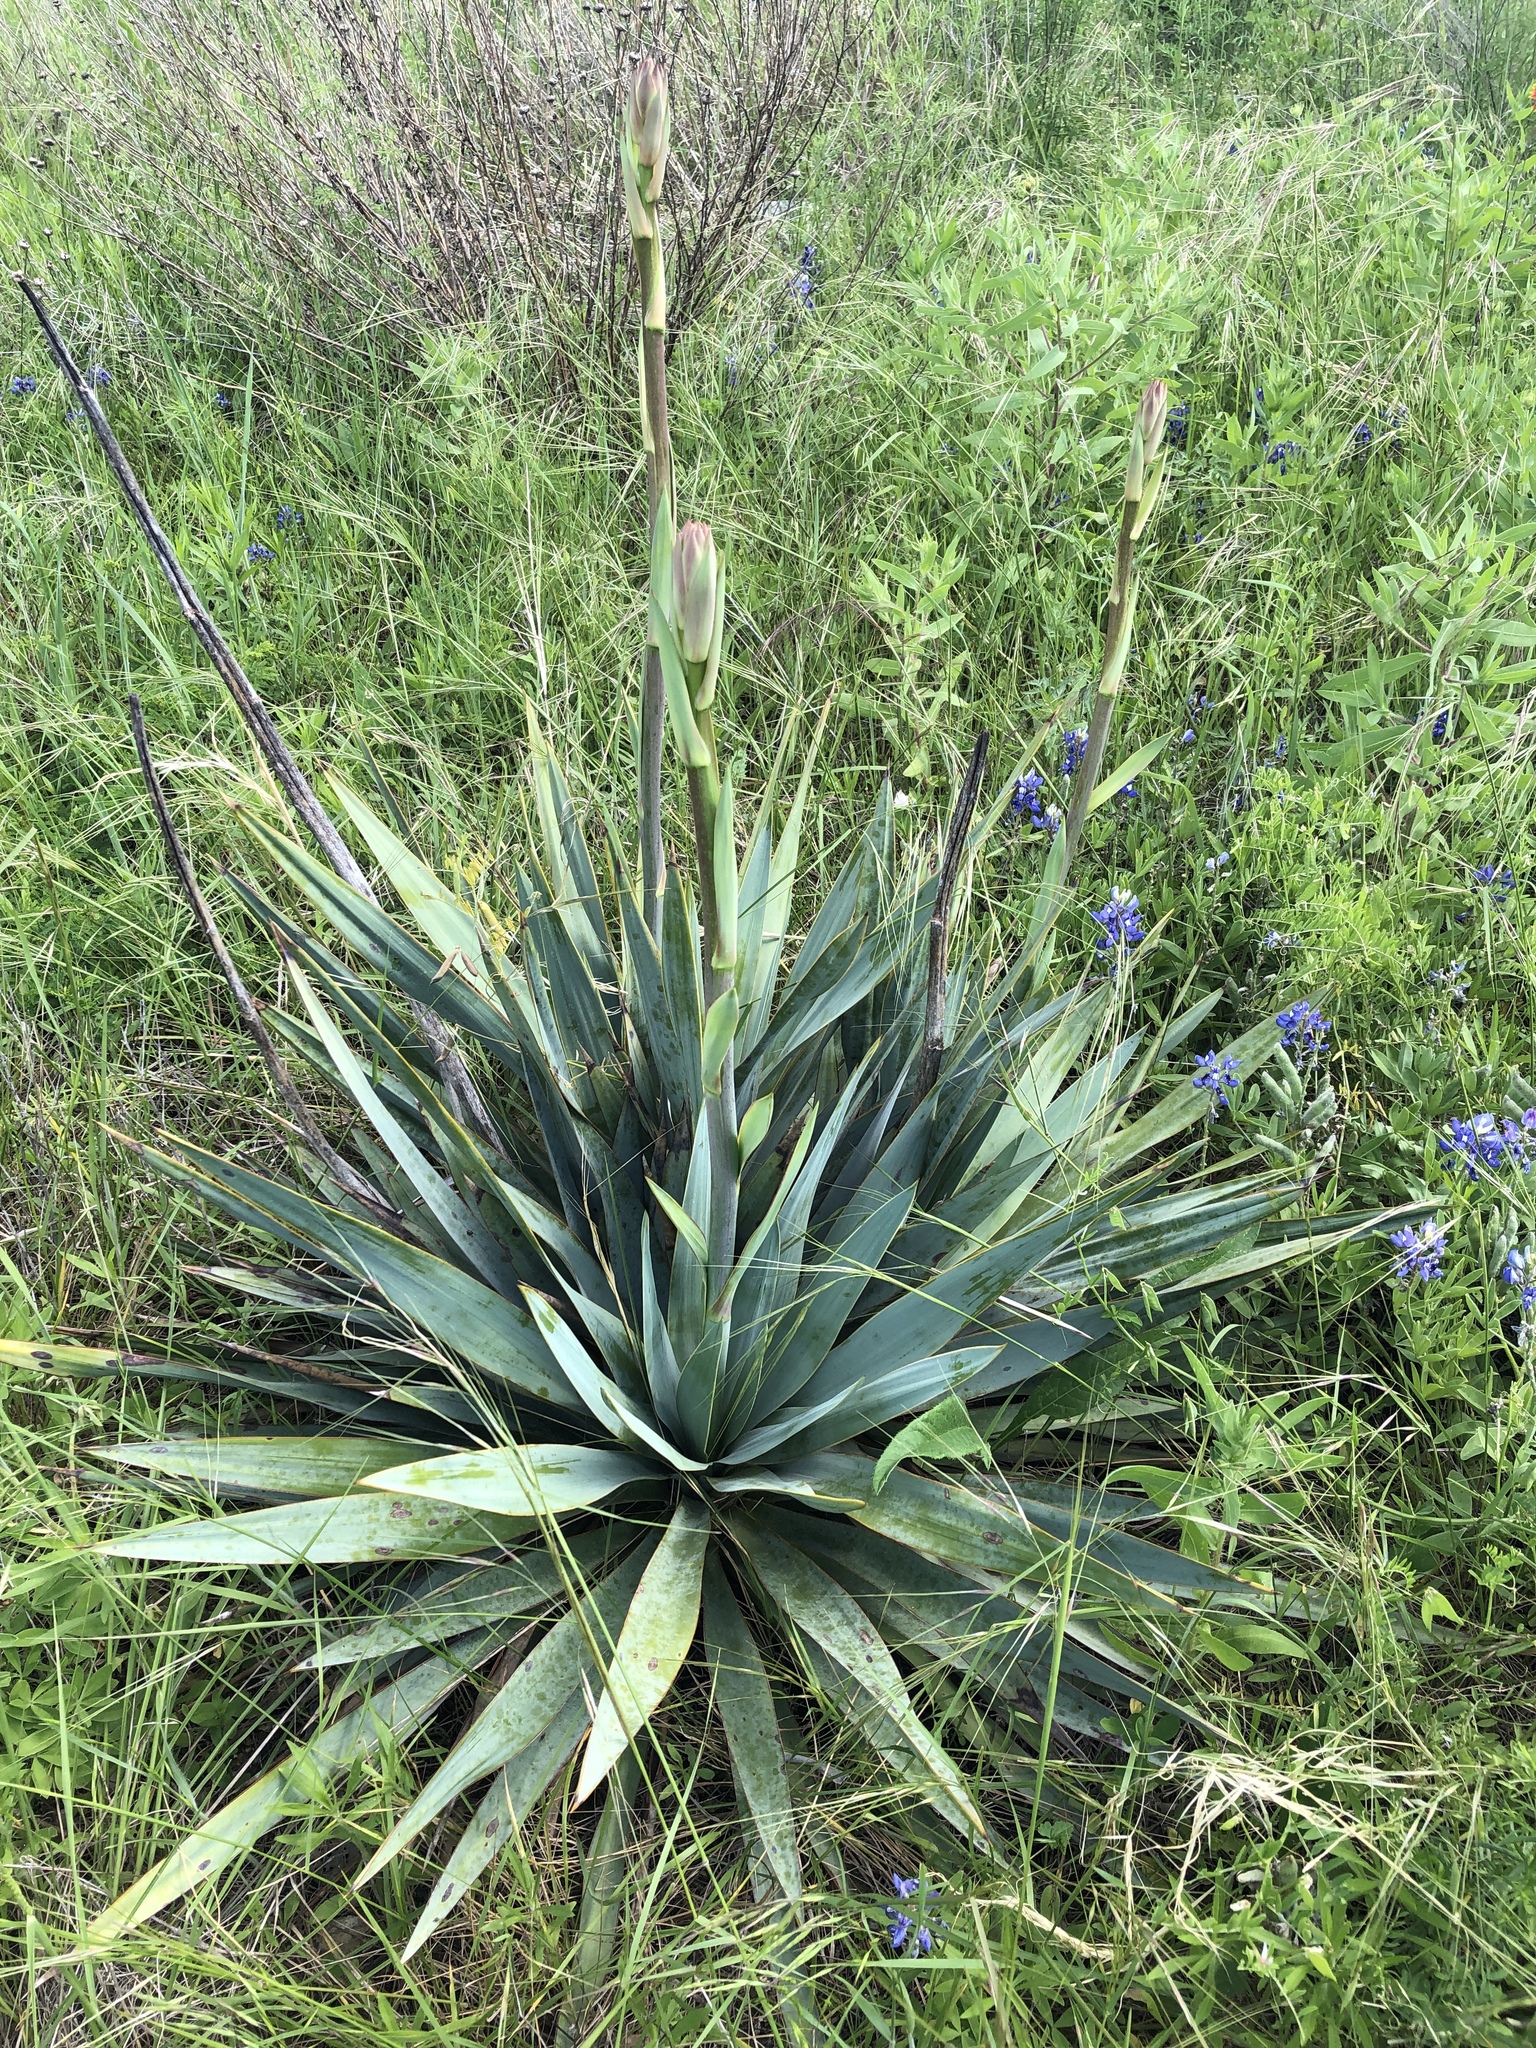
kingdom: Plantae
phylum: Tracheophyta
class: Liliopsida
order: Asparagales
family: Asparagaceae
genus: Yucca
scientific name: Yucca pallida
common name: Pale leaf yucca
